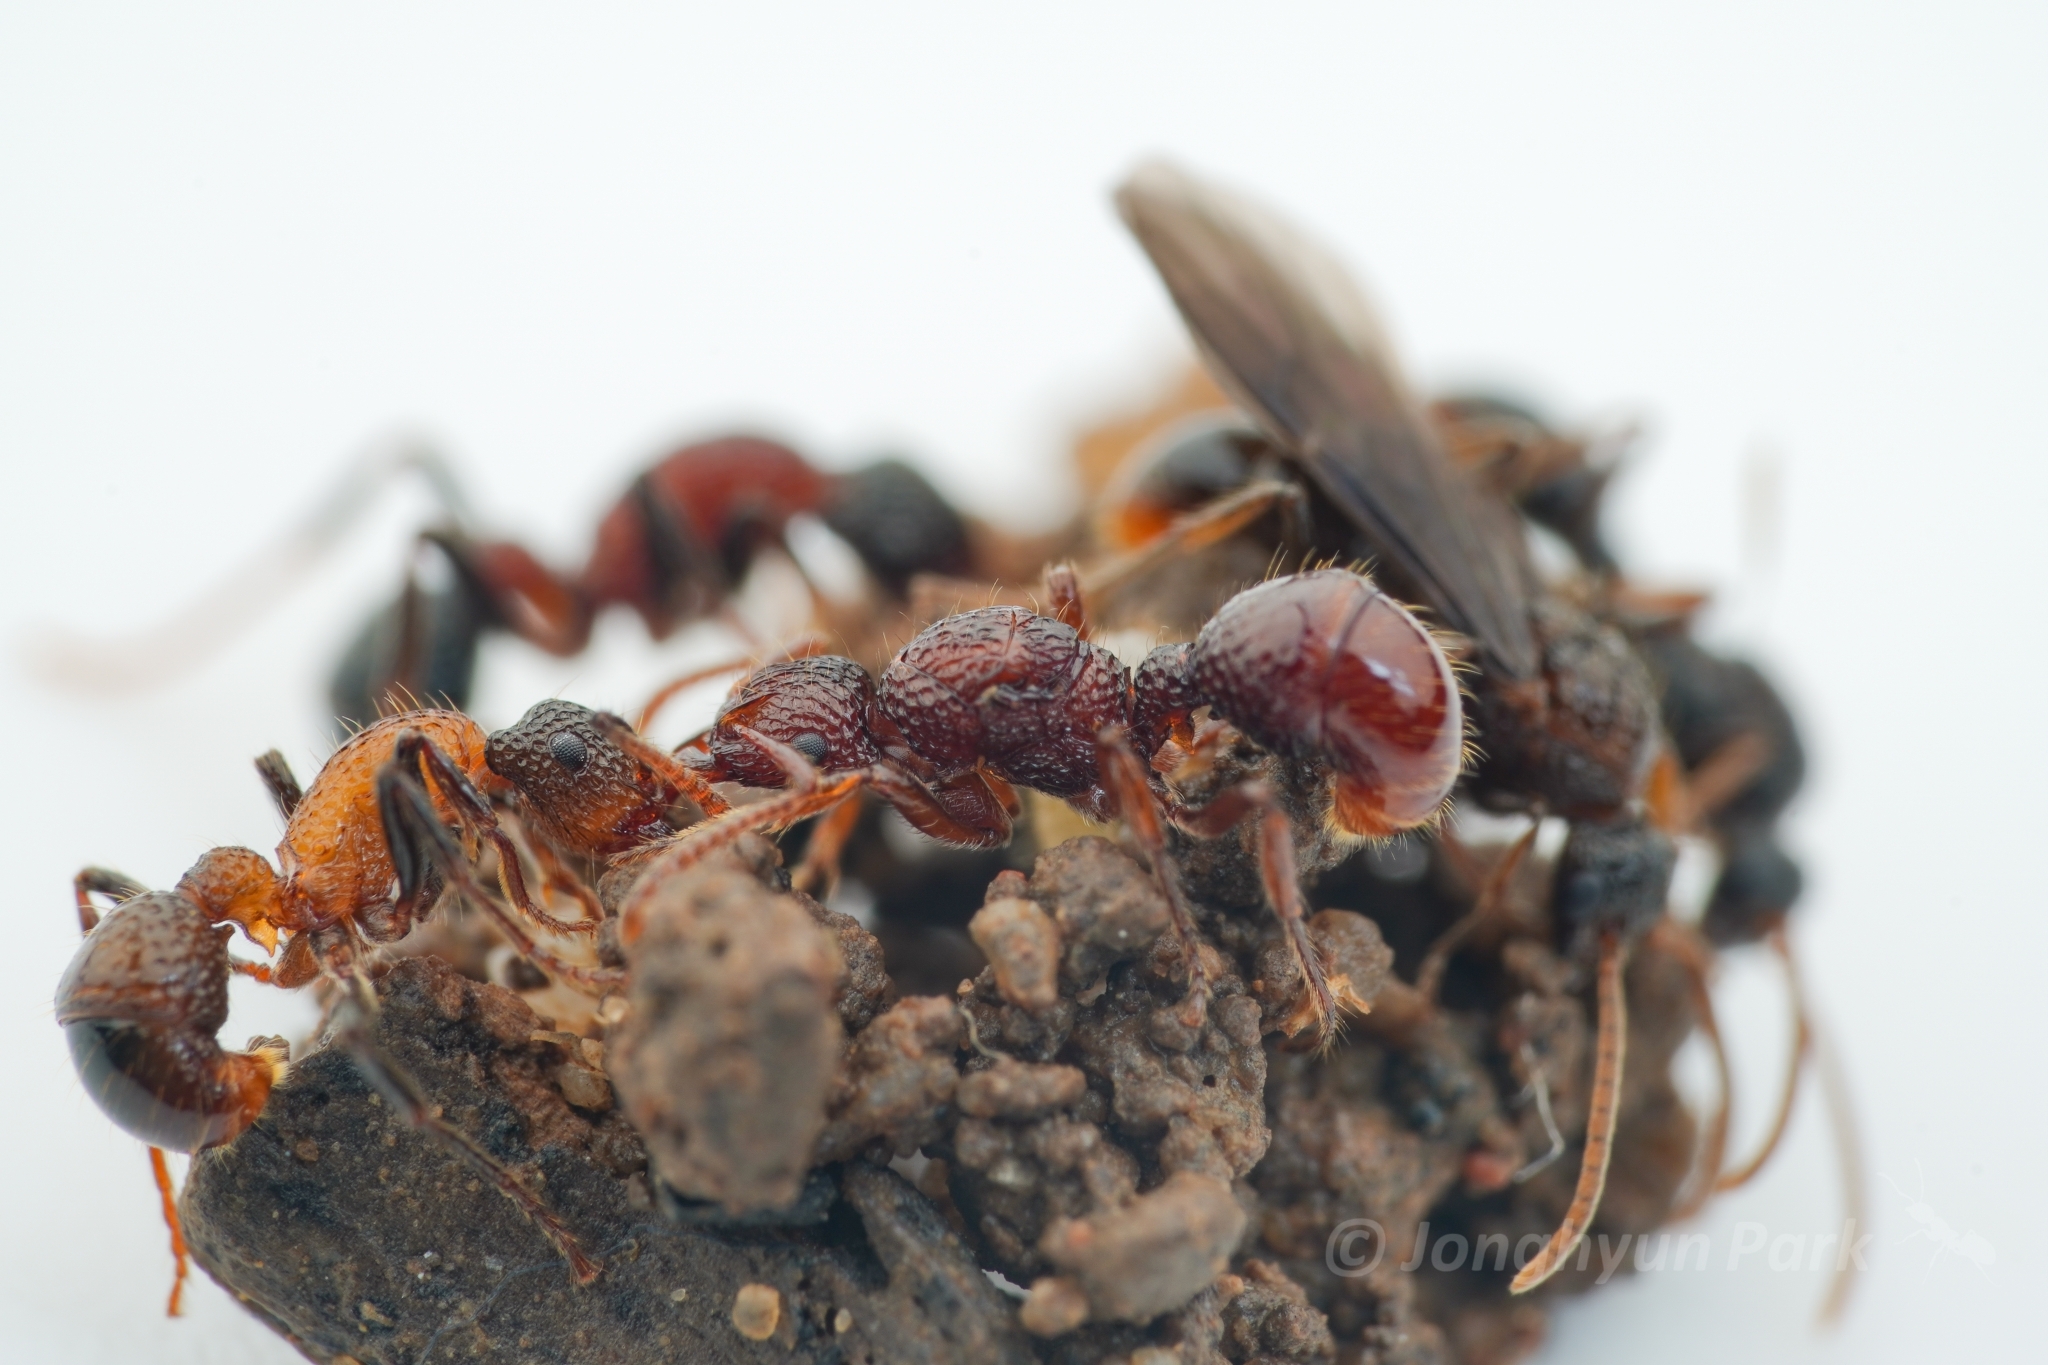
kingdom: Animalia
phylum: Arthropoda
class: Insecta
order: Hymenoptera
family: Formicidae
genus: Stictoponera
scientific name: Stictoponera
